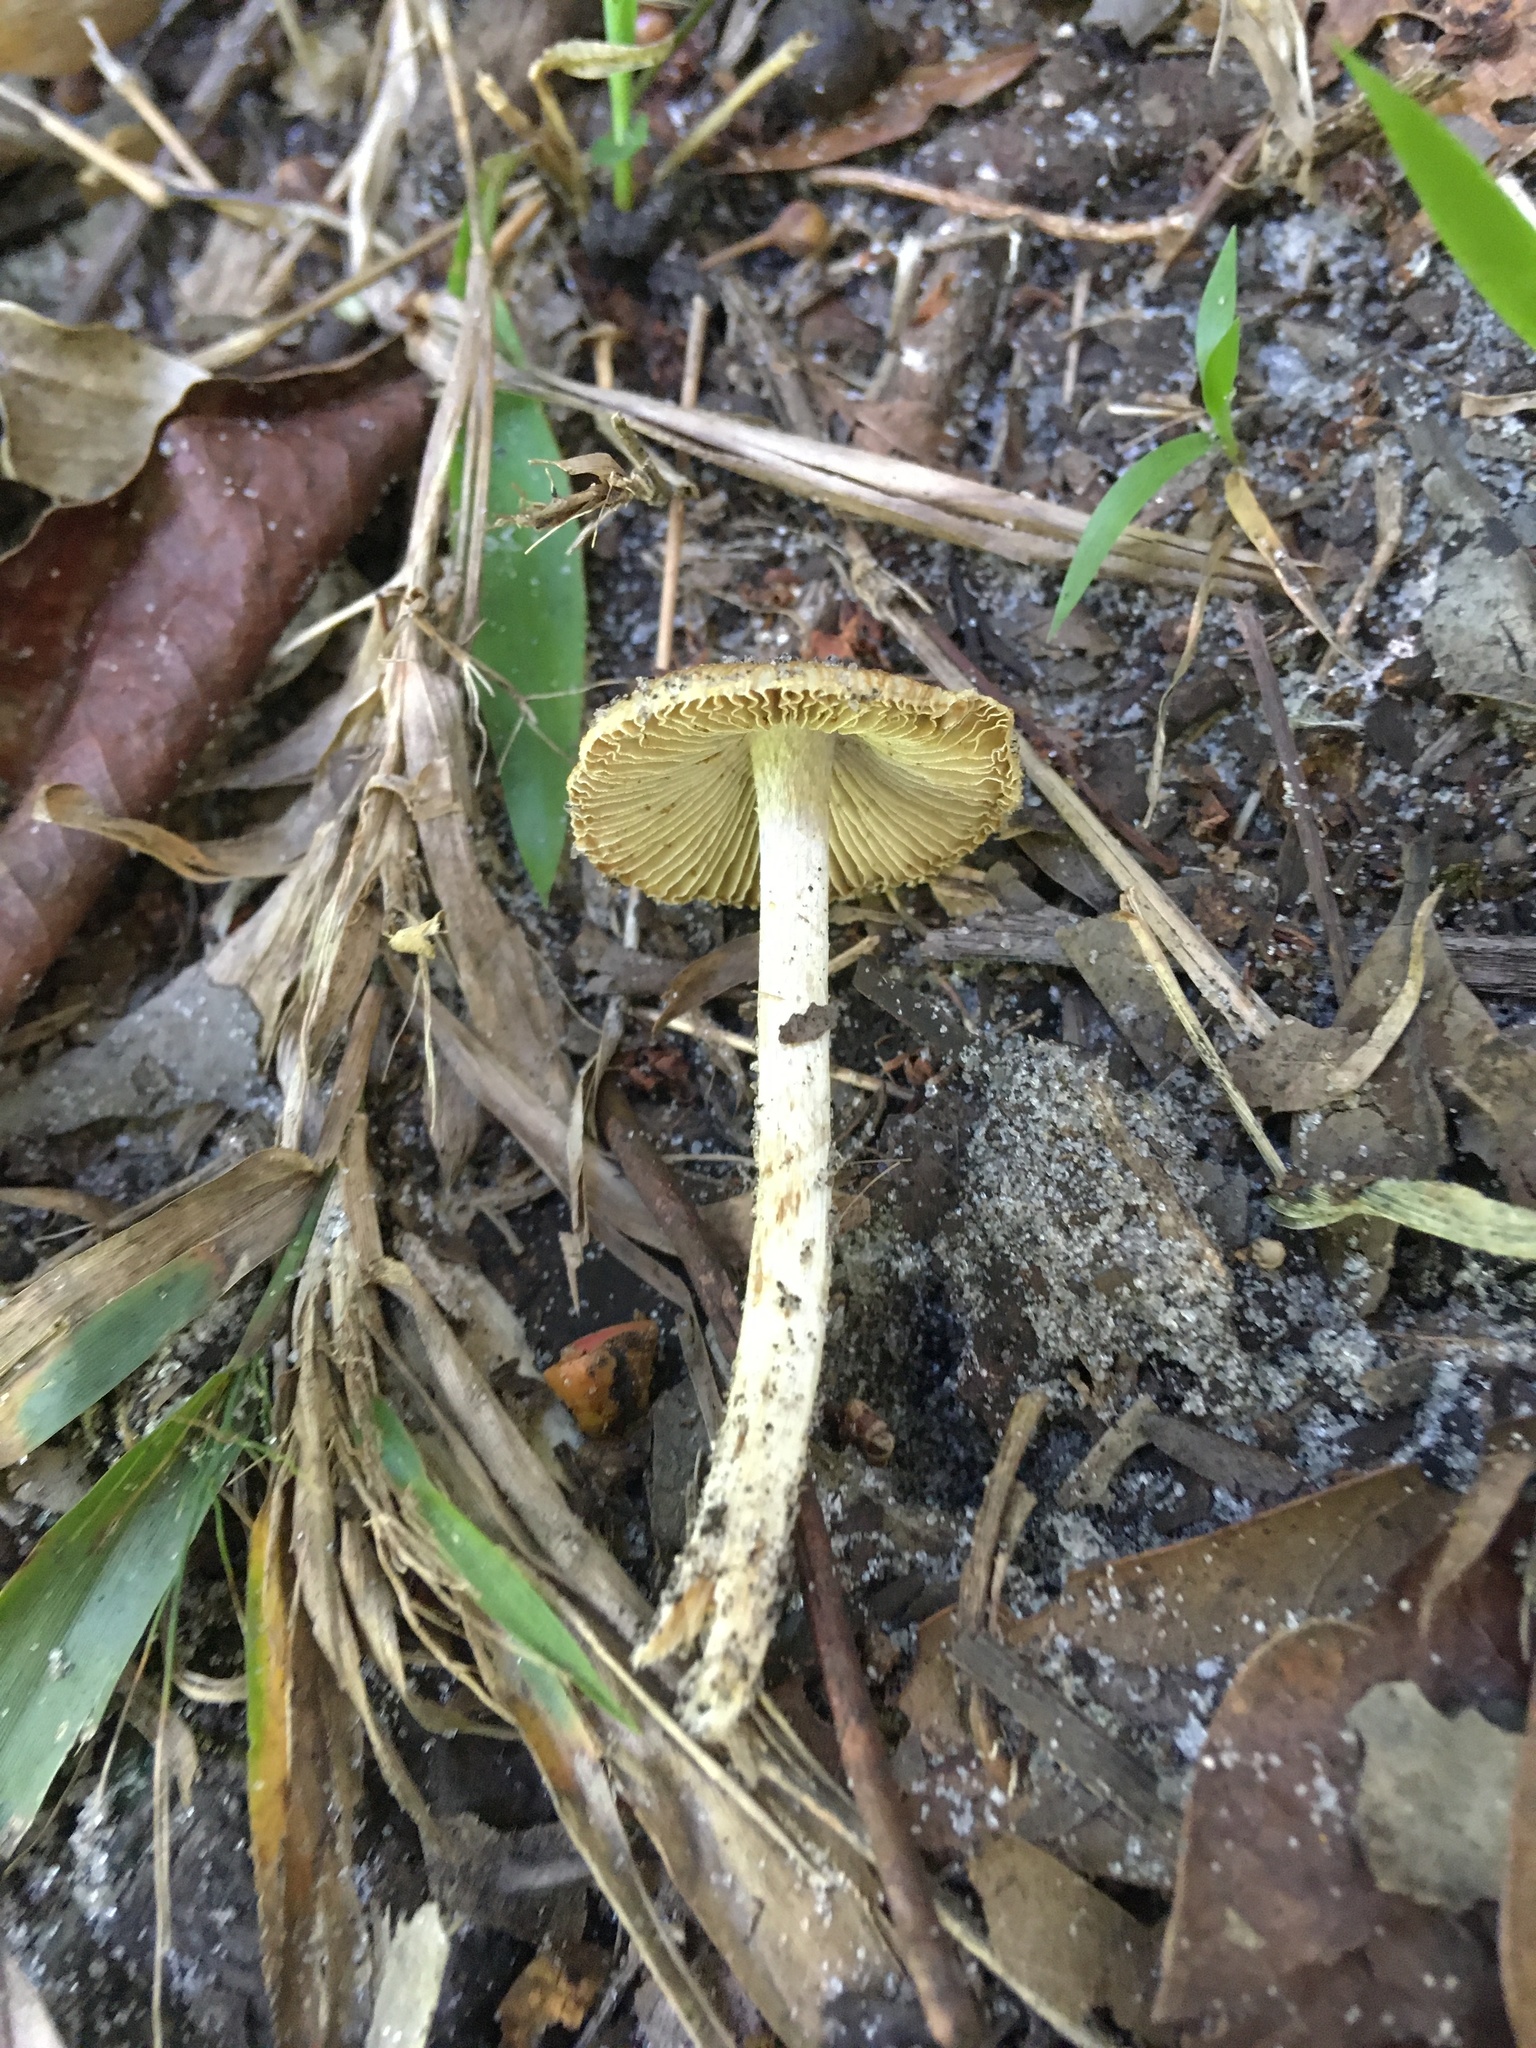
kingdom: Fungi
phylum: Basidiomycota
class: Agaricomycetes
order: Agaricales
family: Bolbitiaceae
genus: Bolbitius
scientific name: Bolbitius titubans
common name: Yellow fieldcap
